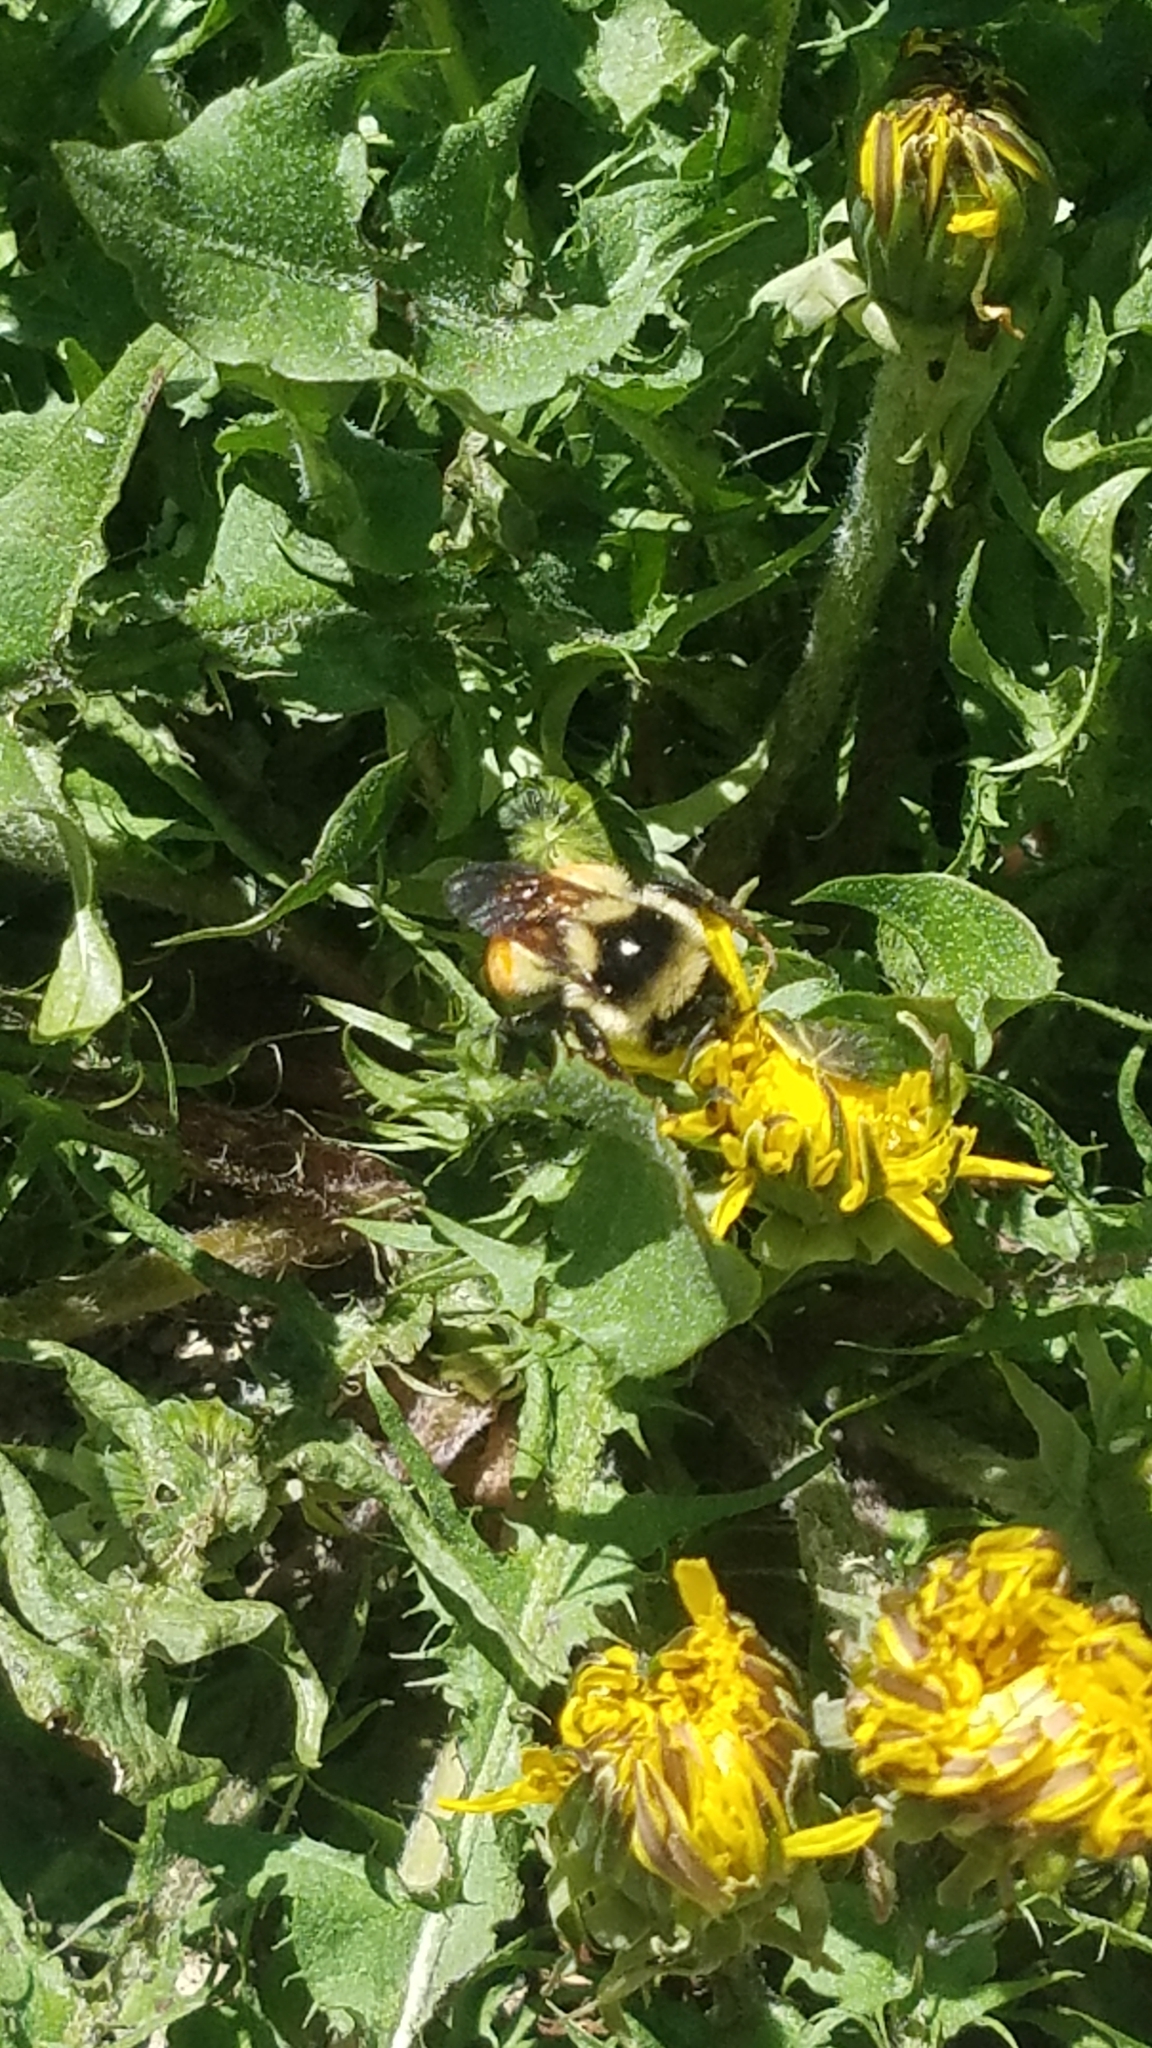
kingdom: Animalia
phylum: Arthropoda
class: Insecta
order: Hymenoptera
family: Apidae
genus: Bombus
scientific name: Bombus ternarius
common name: Tri-colored bumble bee
